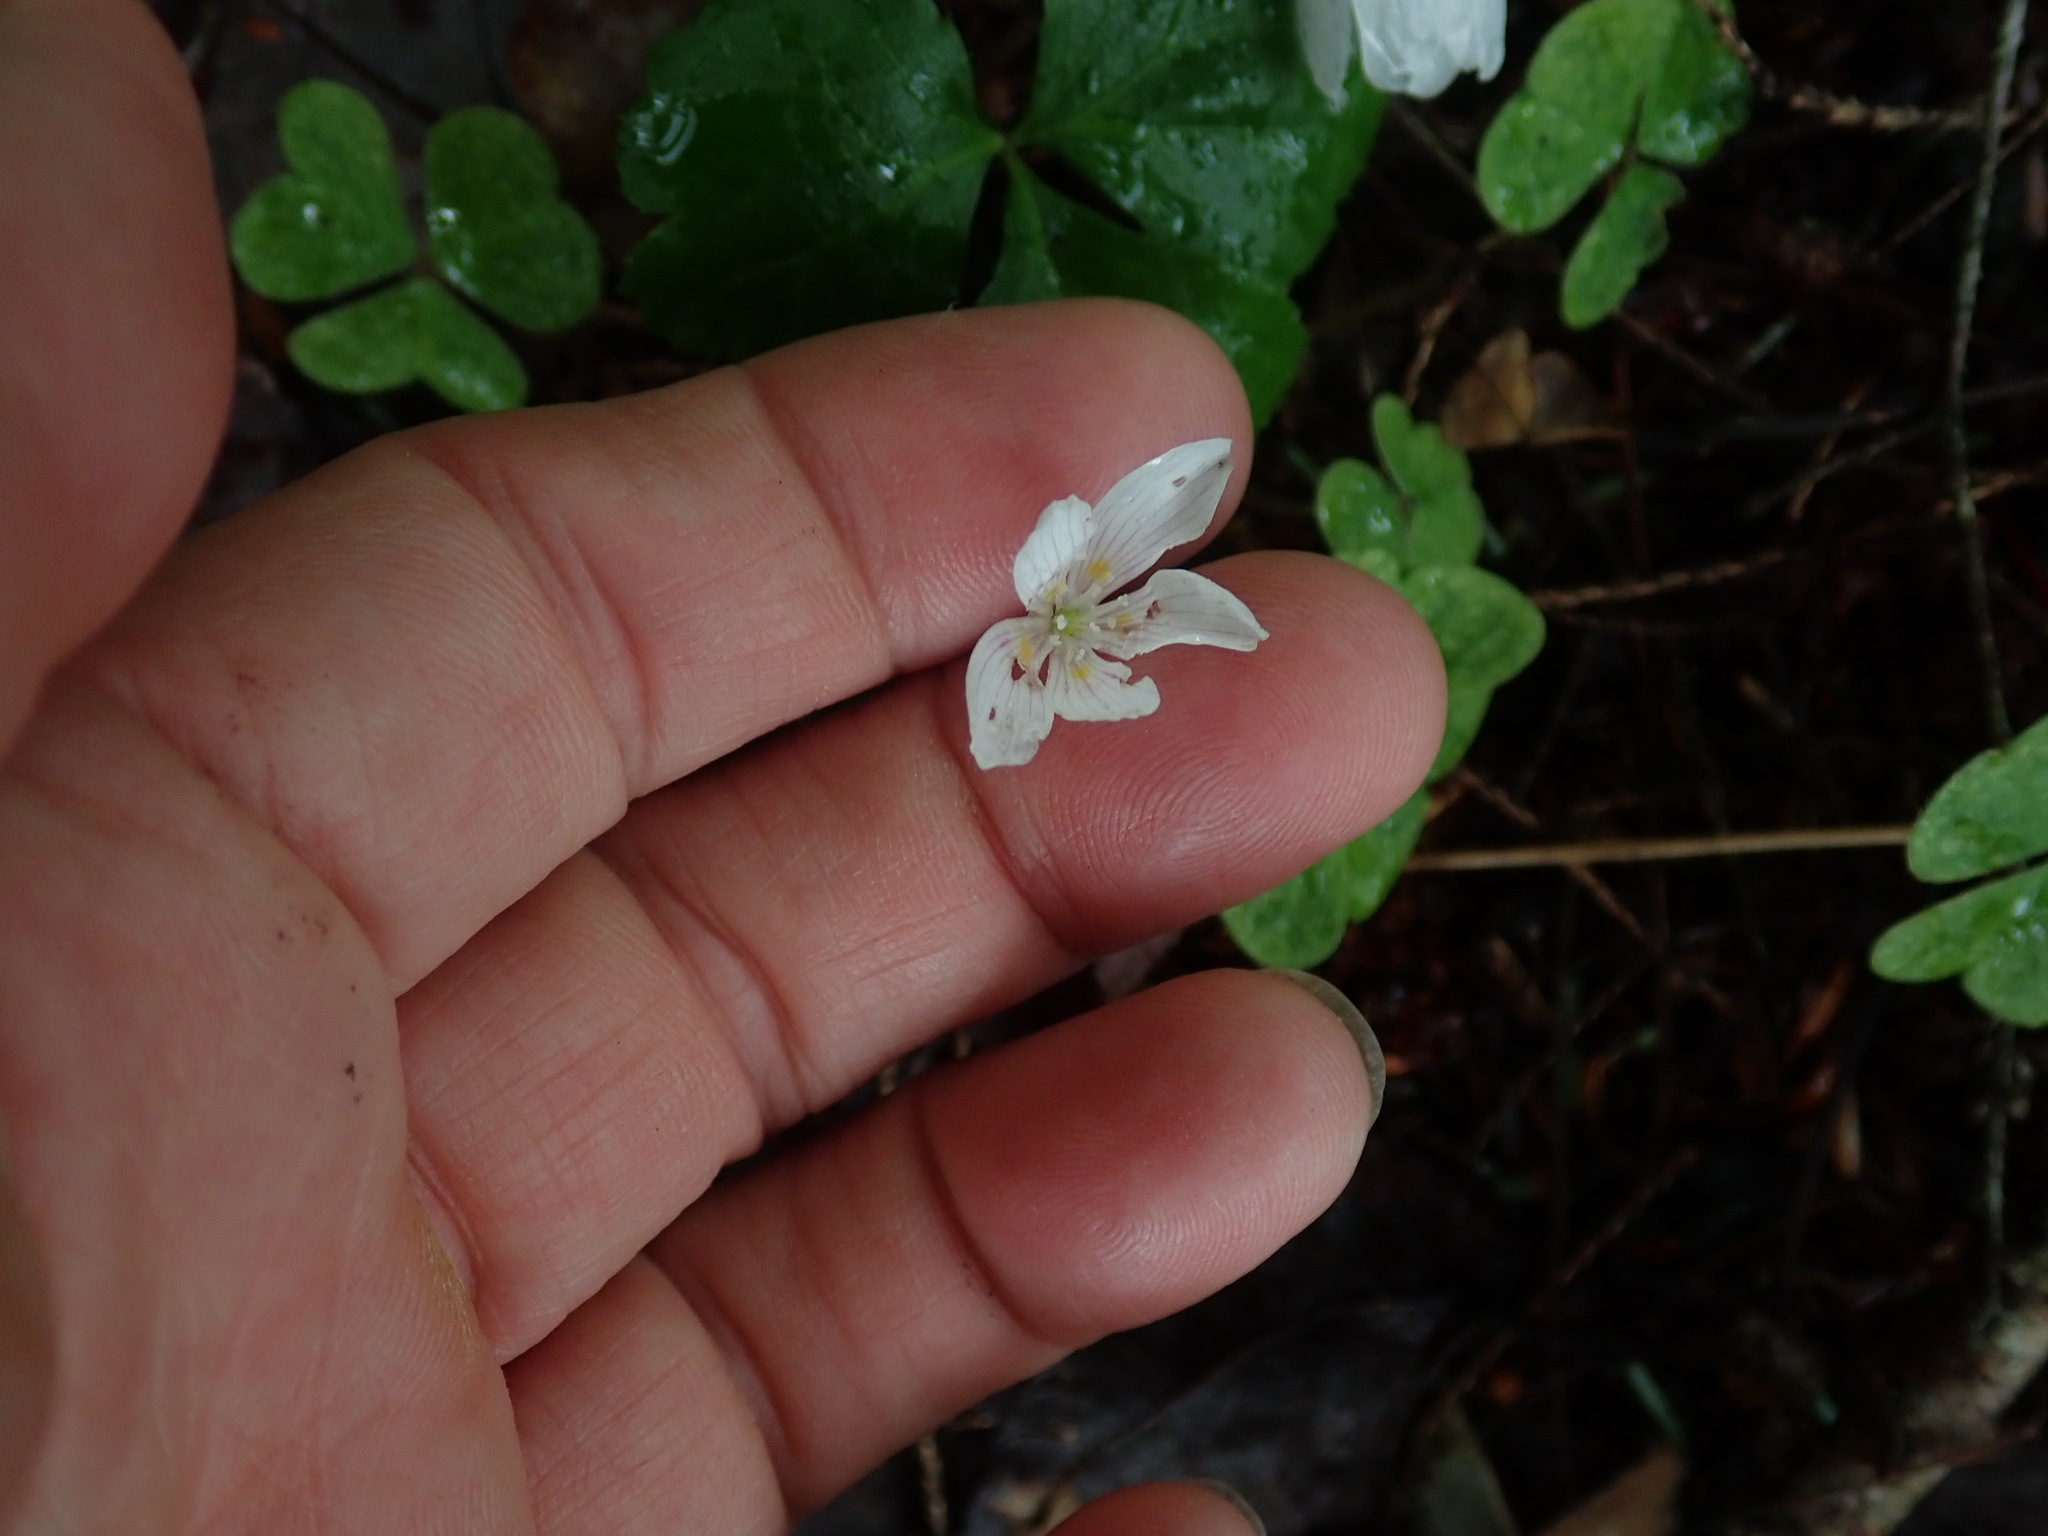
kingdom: Plantae
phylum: Tracheophyta
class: Magnoliopsida
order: Oxalidales
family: Oxalidaceae
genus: Oxalis
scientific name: Oxalis montana
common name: American wood-sorrel
